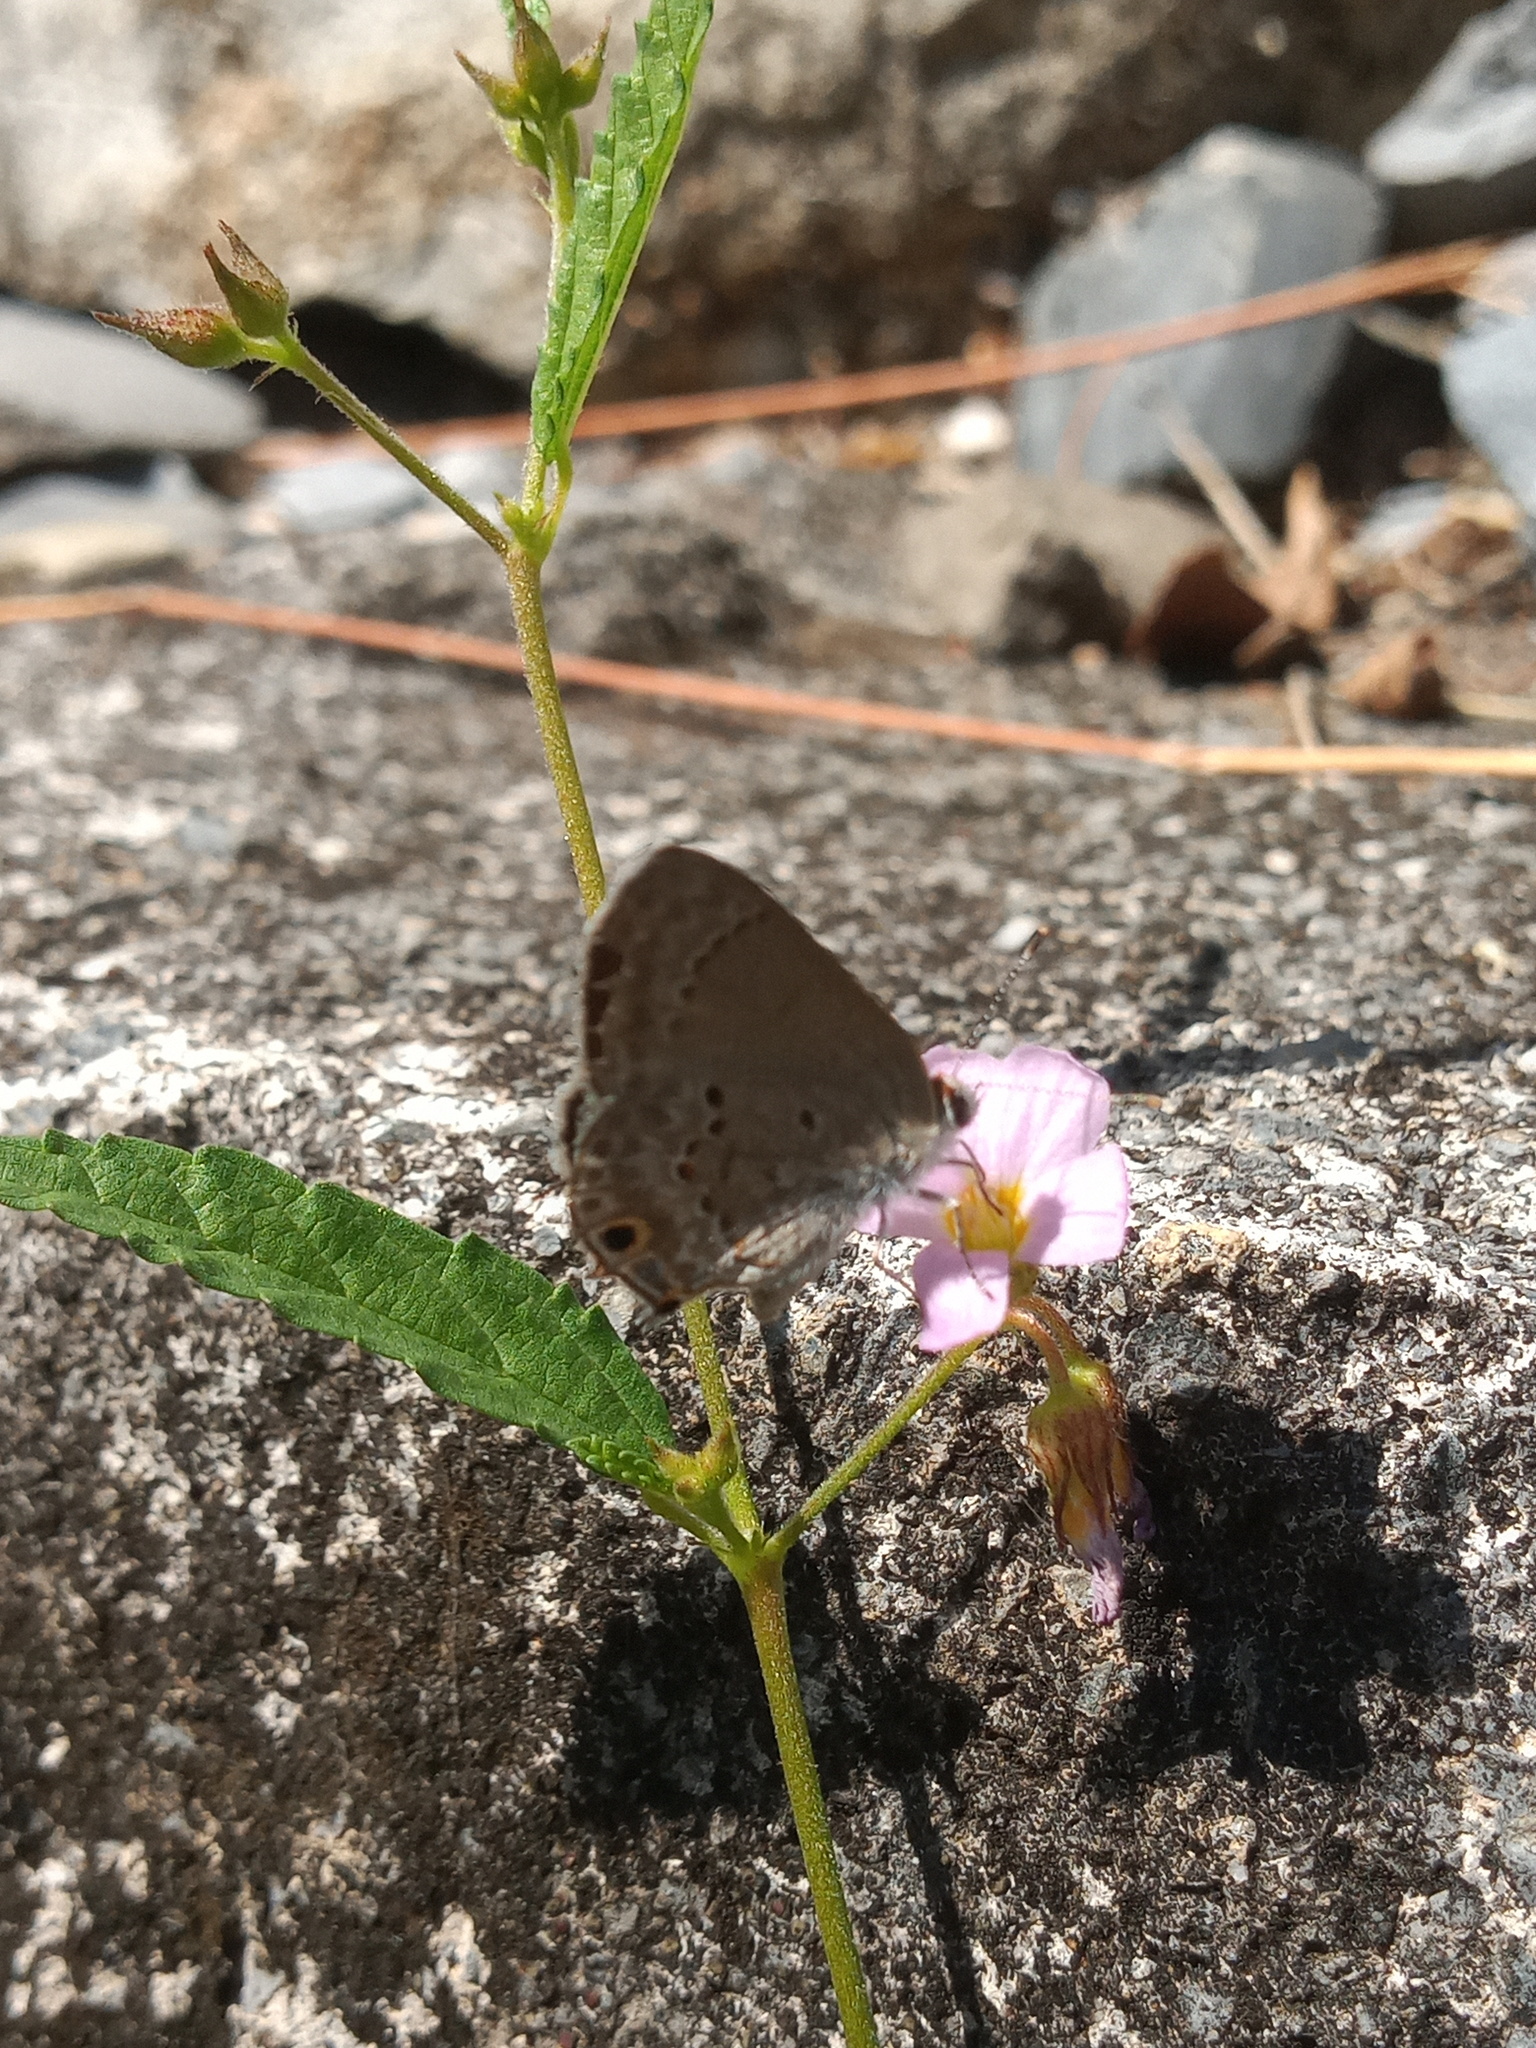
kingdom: Animalia
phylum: Arthropoda
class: Insecta
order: Lepidoptera
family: Lycaenidae
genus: Callicista
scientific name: Callicista columella
